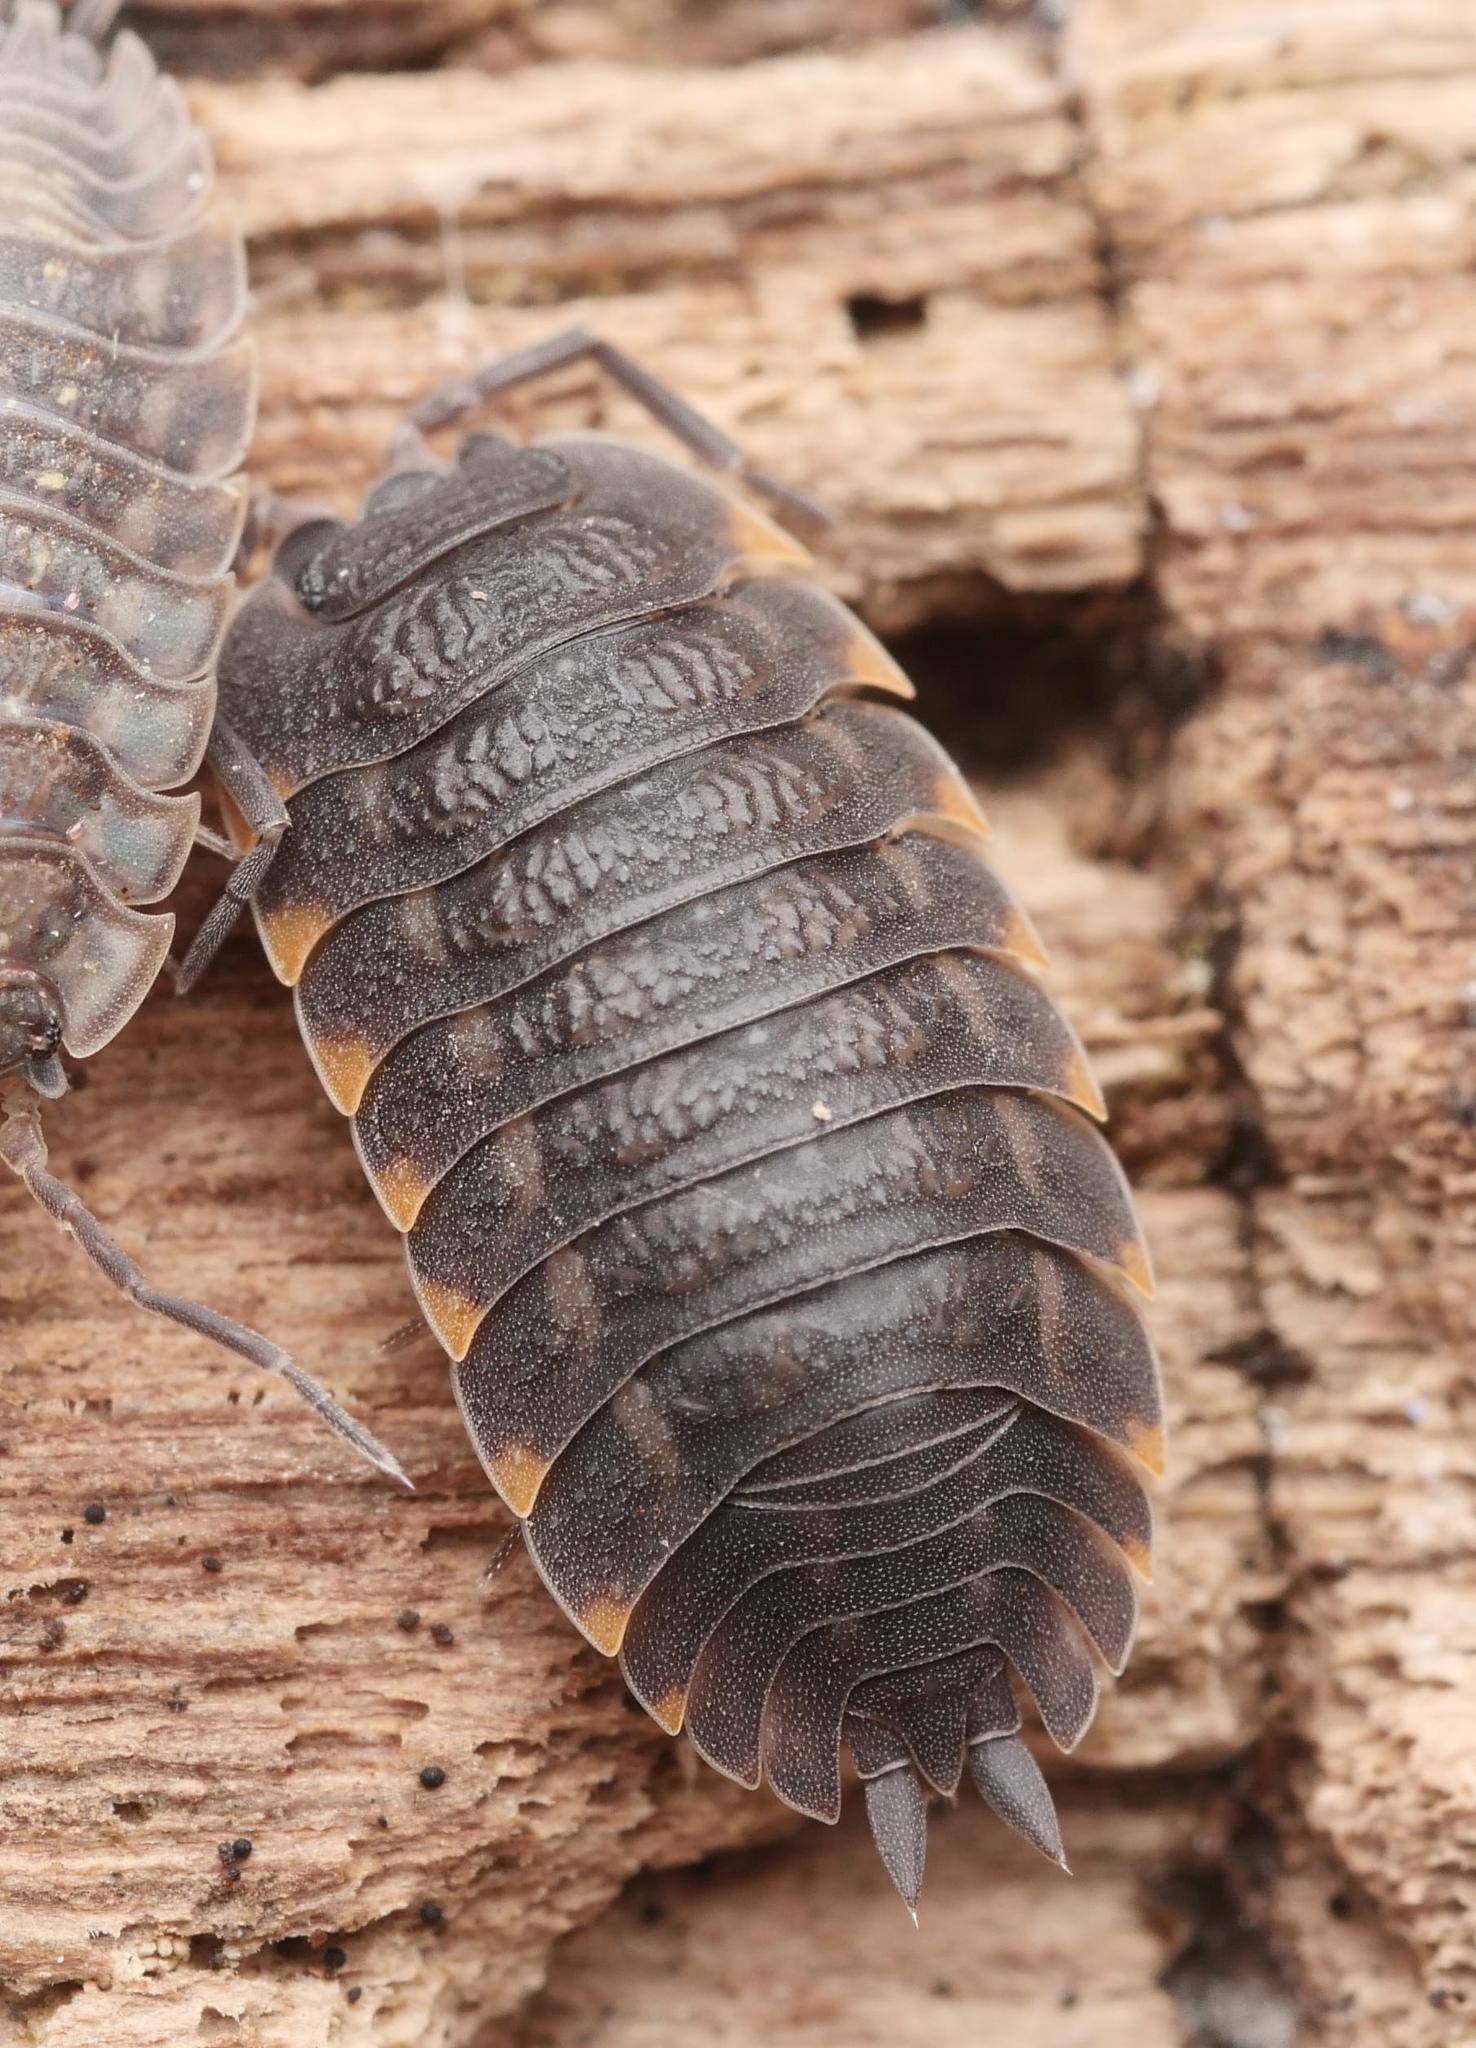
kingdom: Animalia
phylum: Arthropoda
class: Malacostraca
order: Isopoda
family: Trachelipodidae
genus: Trachelipus
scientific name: Trachelipus ratzeburgii
